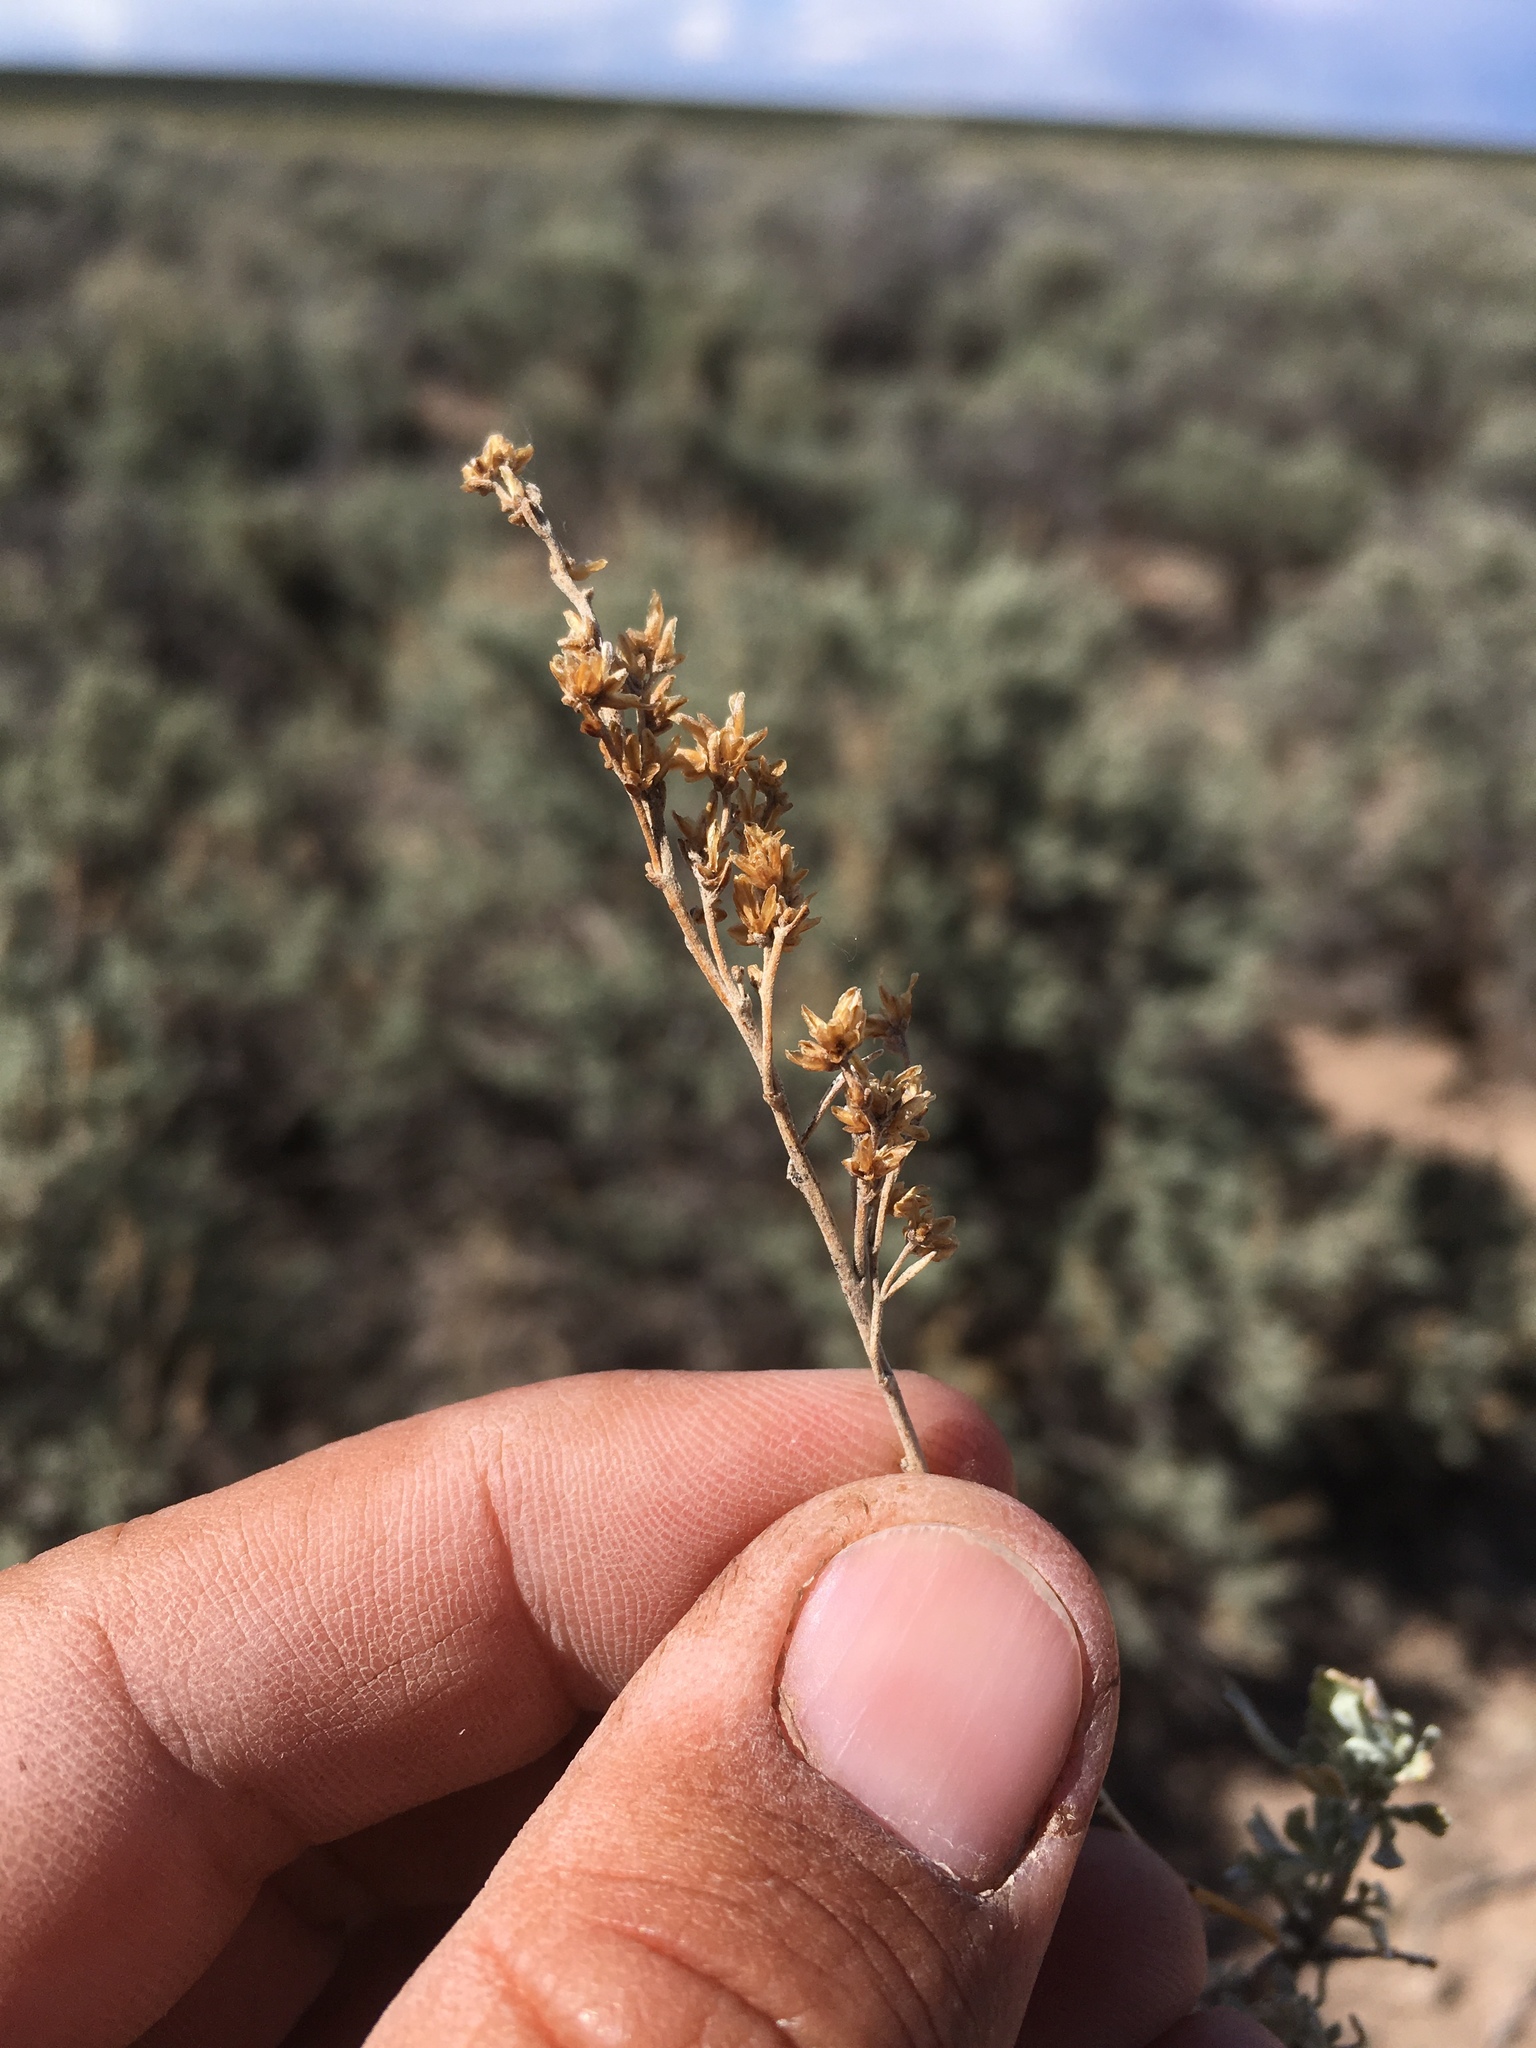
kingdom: Plantae
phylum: Tracheophyta
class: Magnoliopsida
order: Asterales
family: Asteraceae
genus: Artemisia
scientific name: Artemisia tridentata
